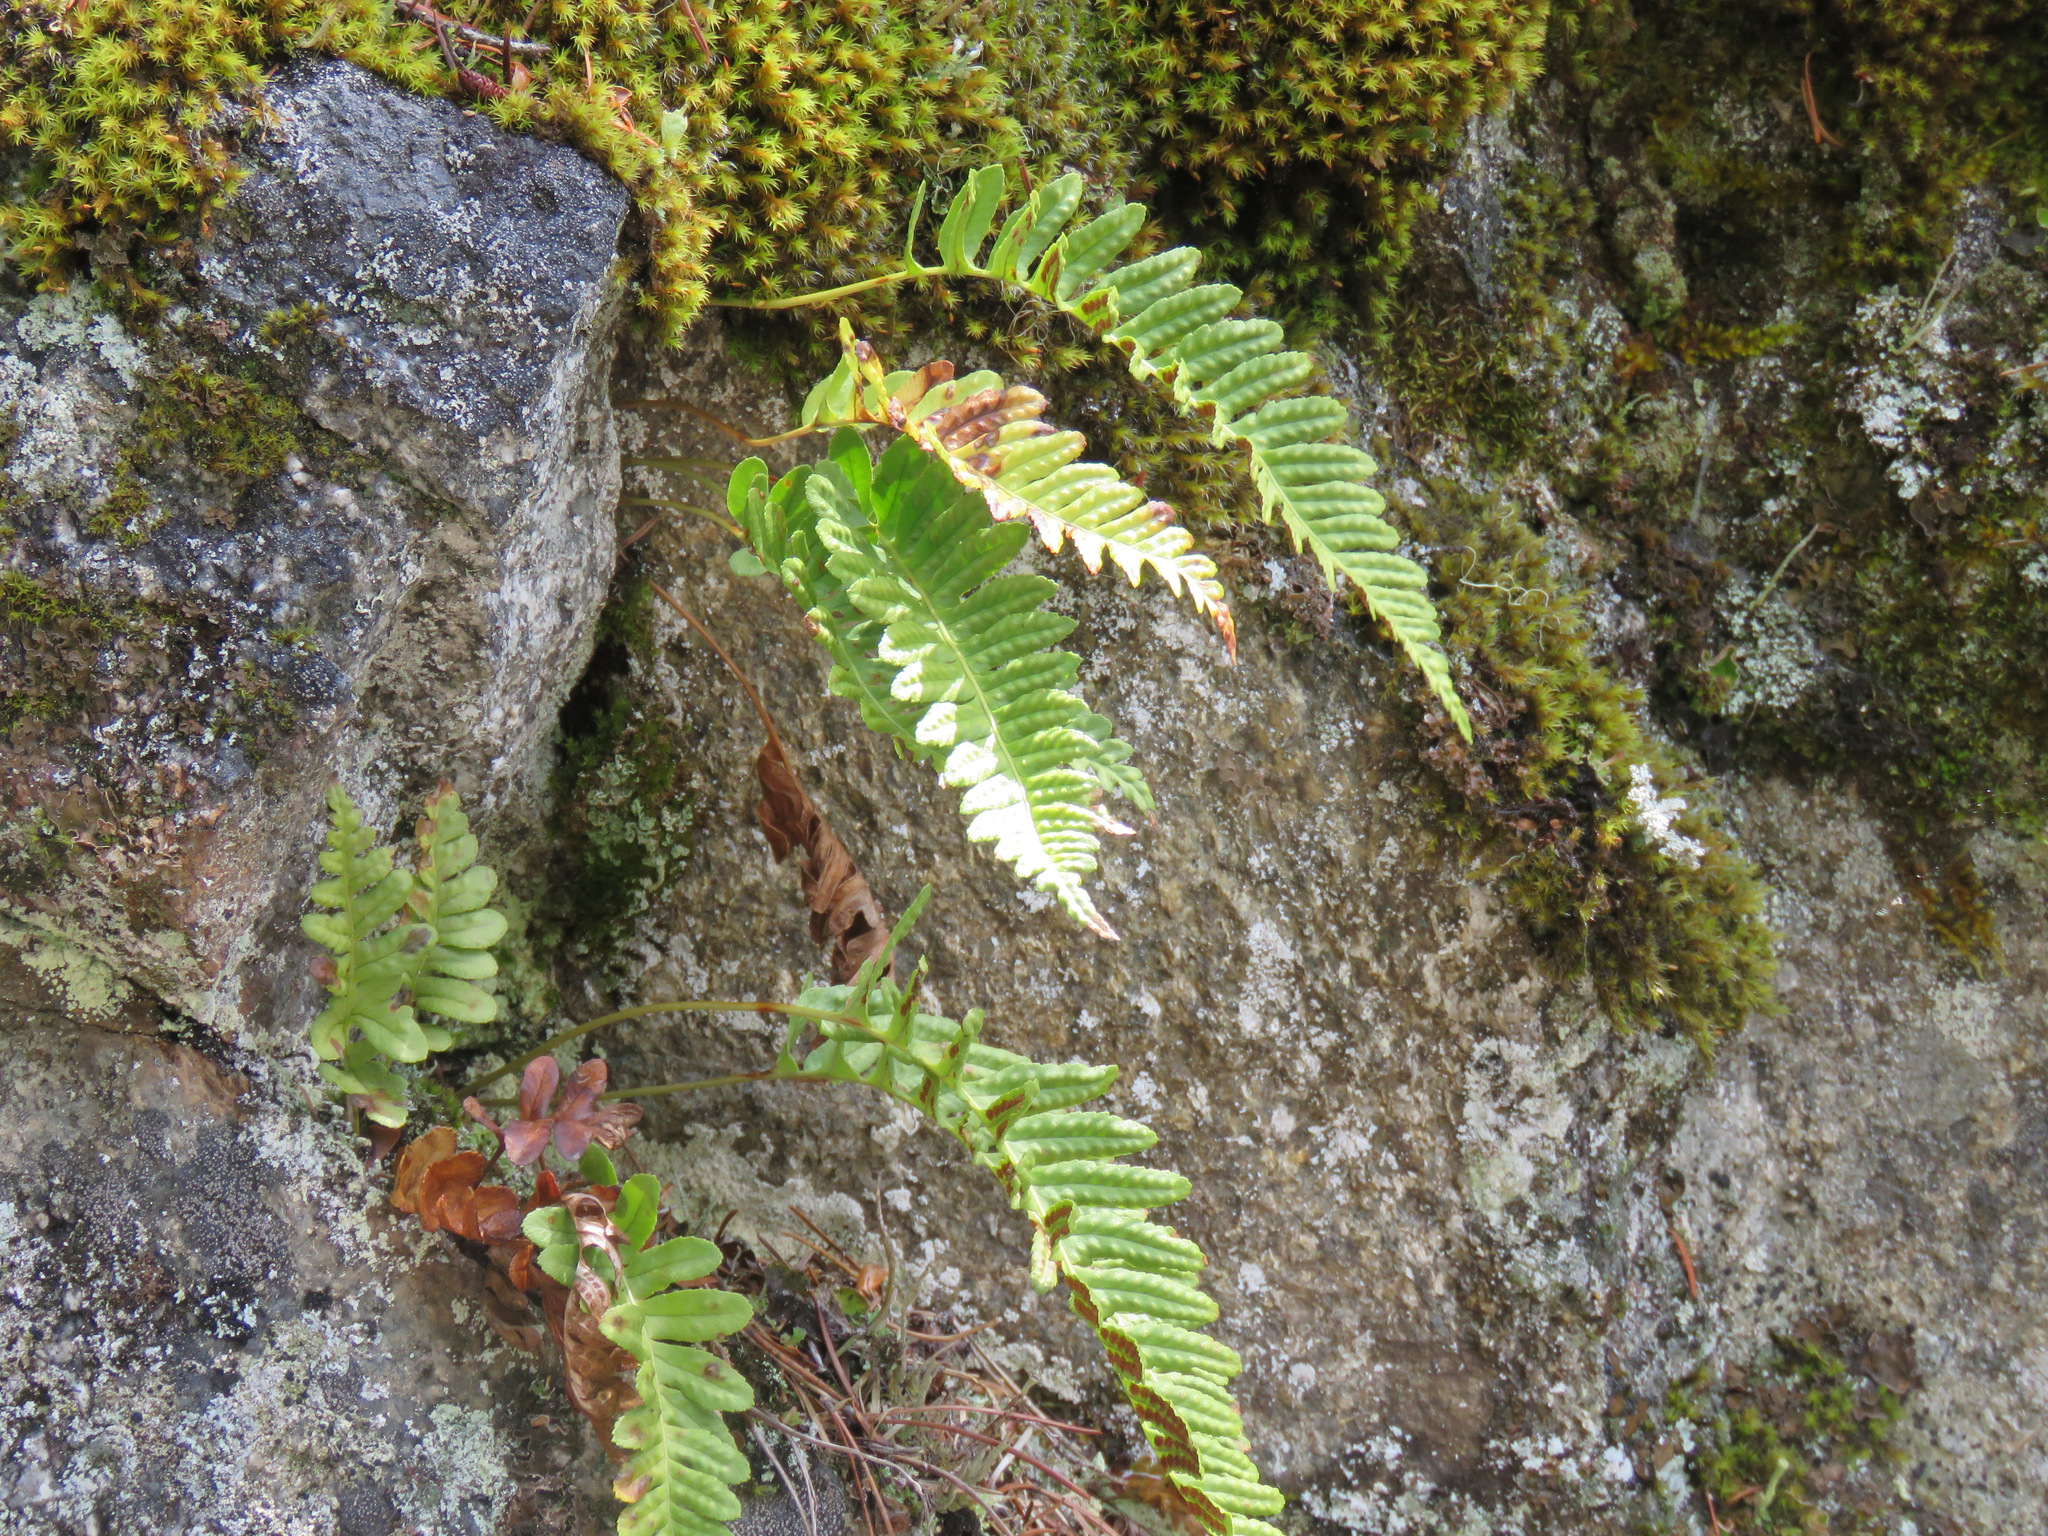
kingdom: Plantae
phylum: Tracheophyta
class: Polypodiopsida
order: Polypodiales
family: Polypodiaceae
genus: Polypodium
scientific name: Polypodium glycyrrhiza
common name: Licorice fern
